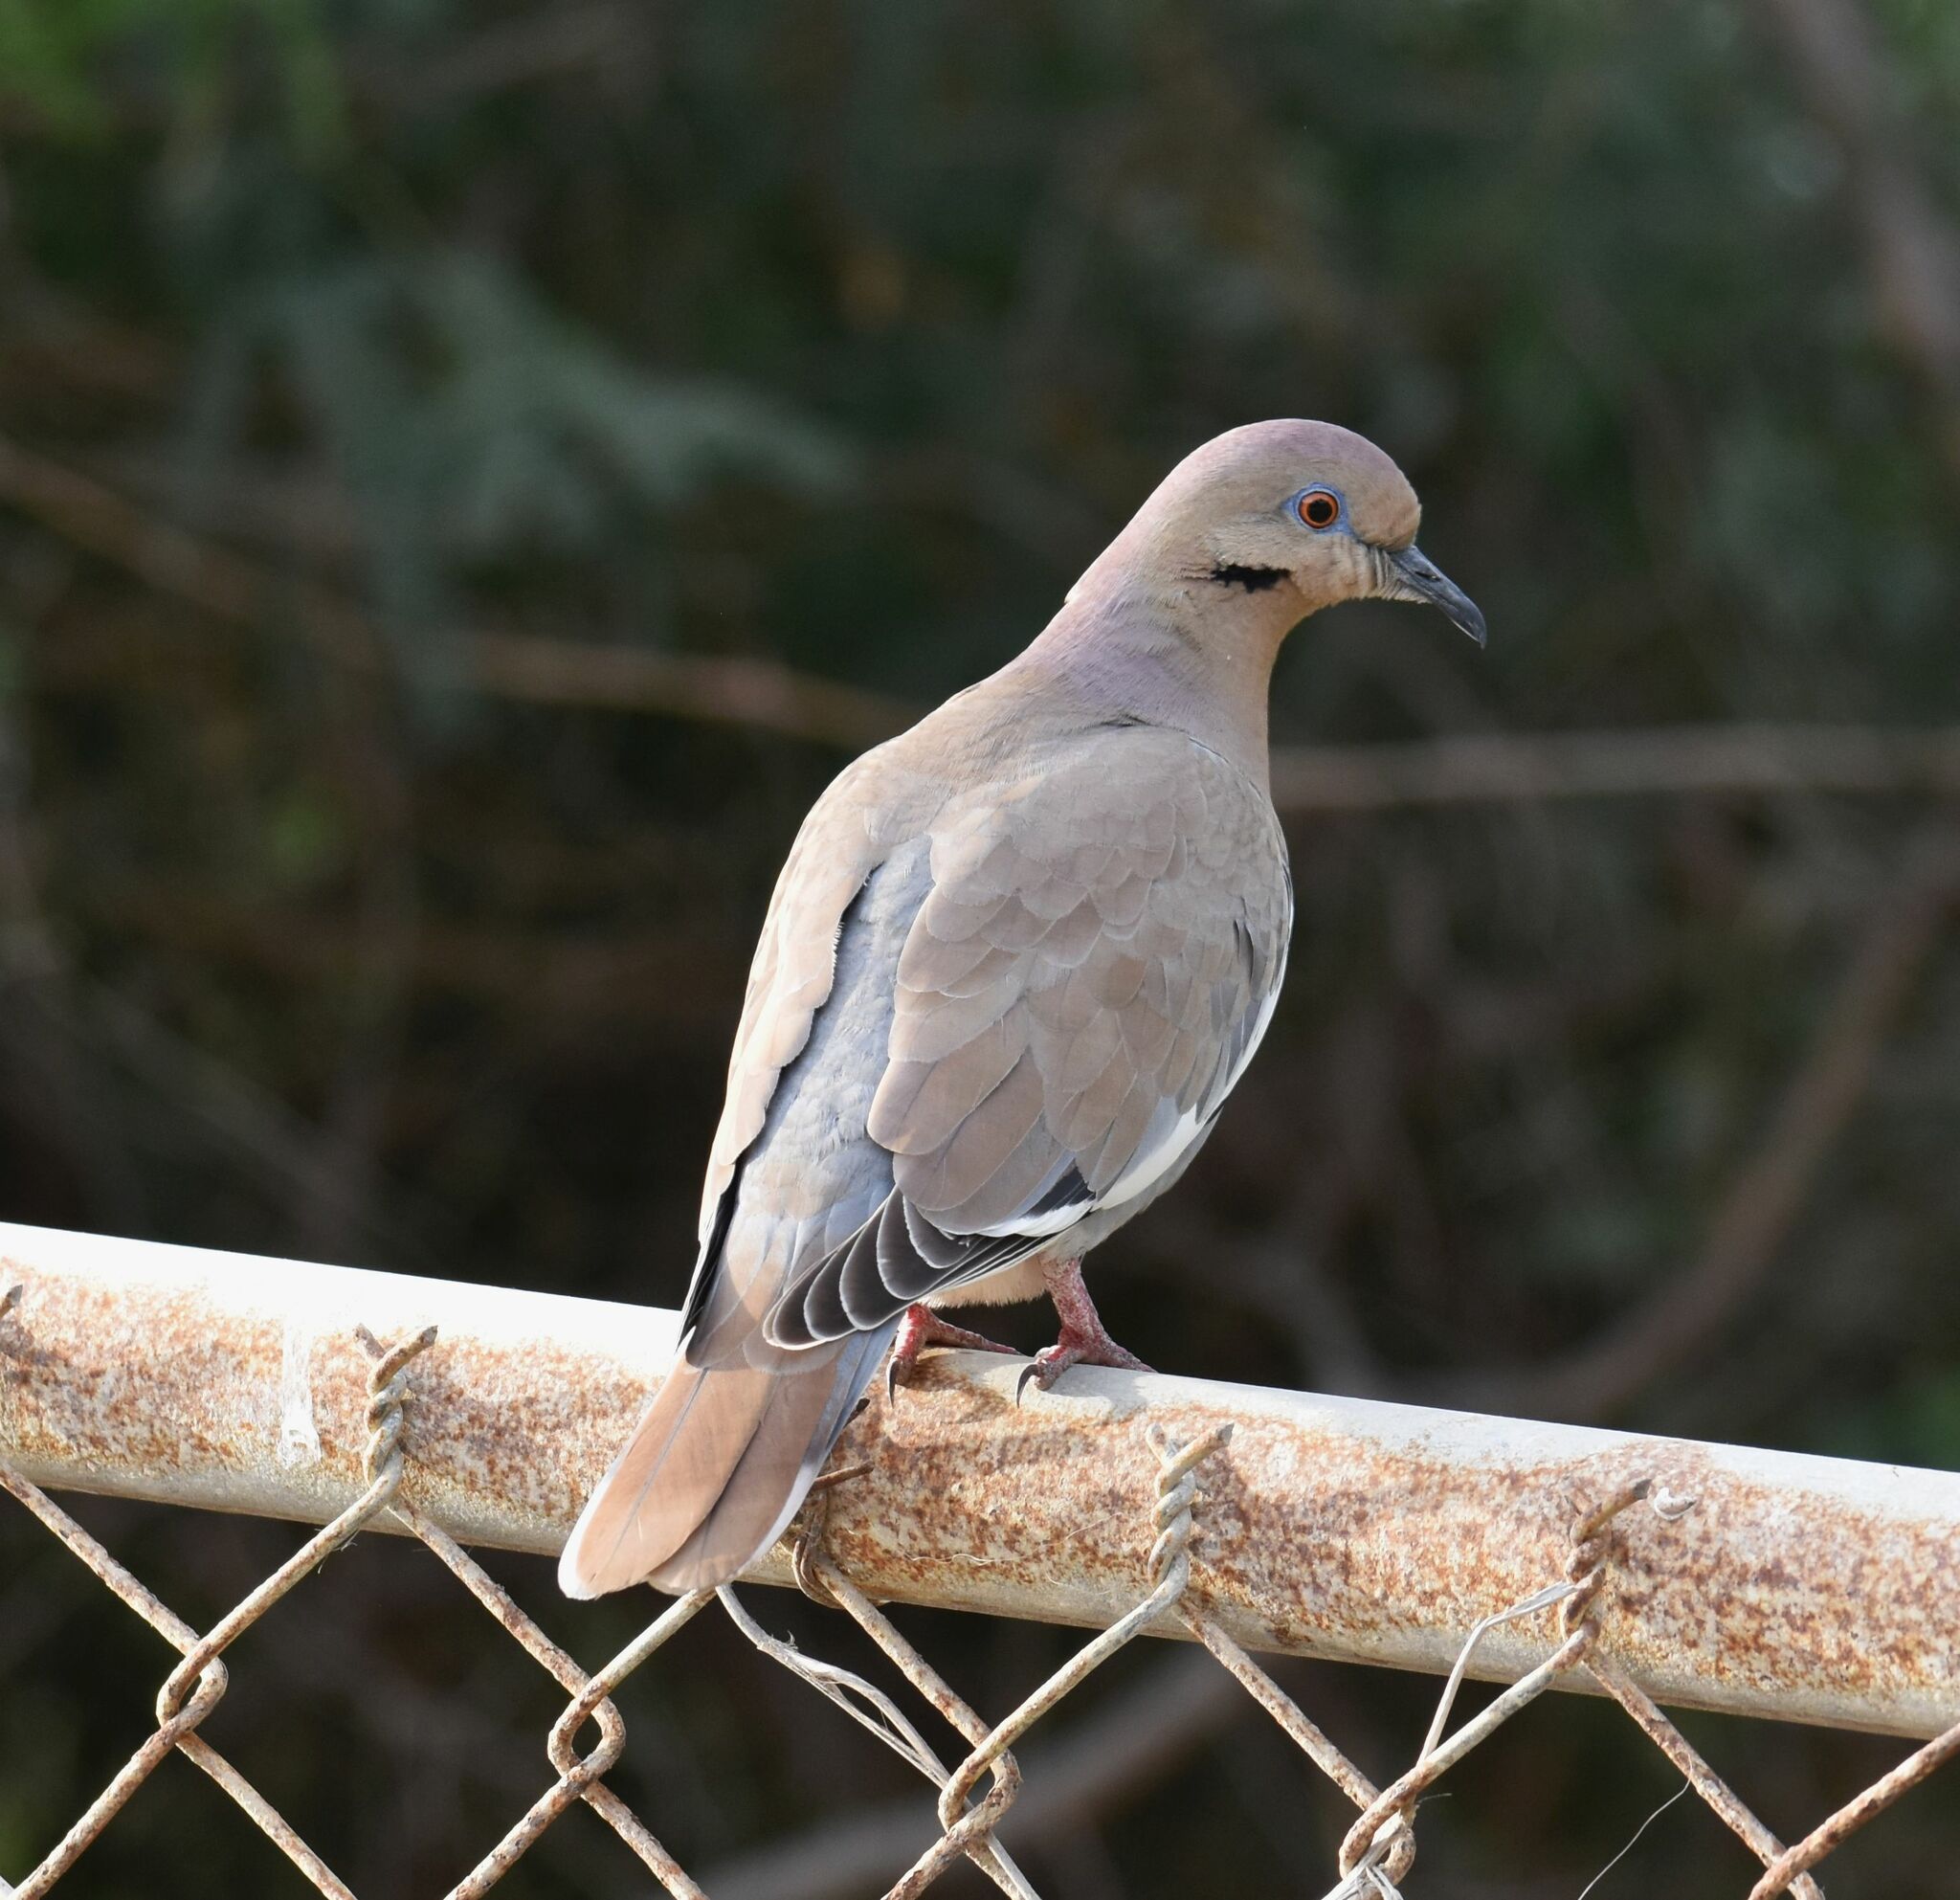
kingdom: Animalia
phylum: Chordata
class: Aves
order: Columbiformes
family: Columbidae
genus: Zenaida
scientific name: Zenaida asiatica
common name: White-winged dove
